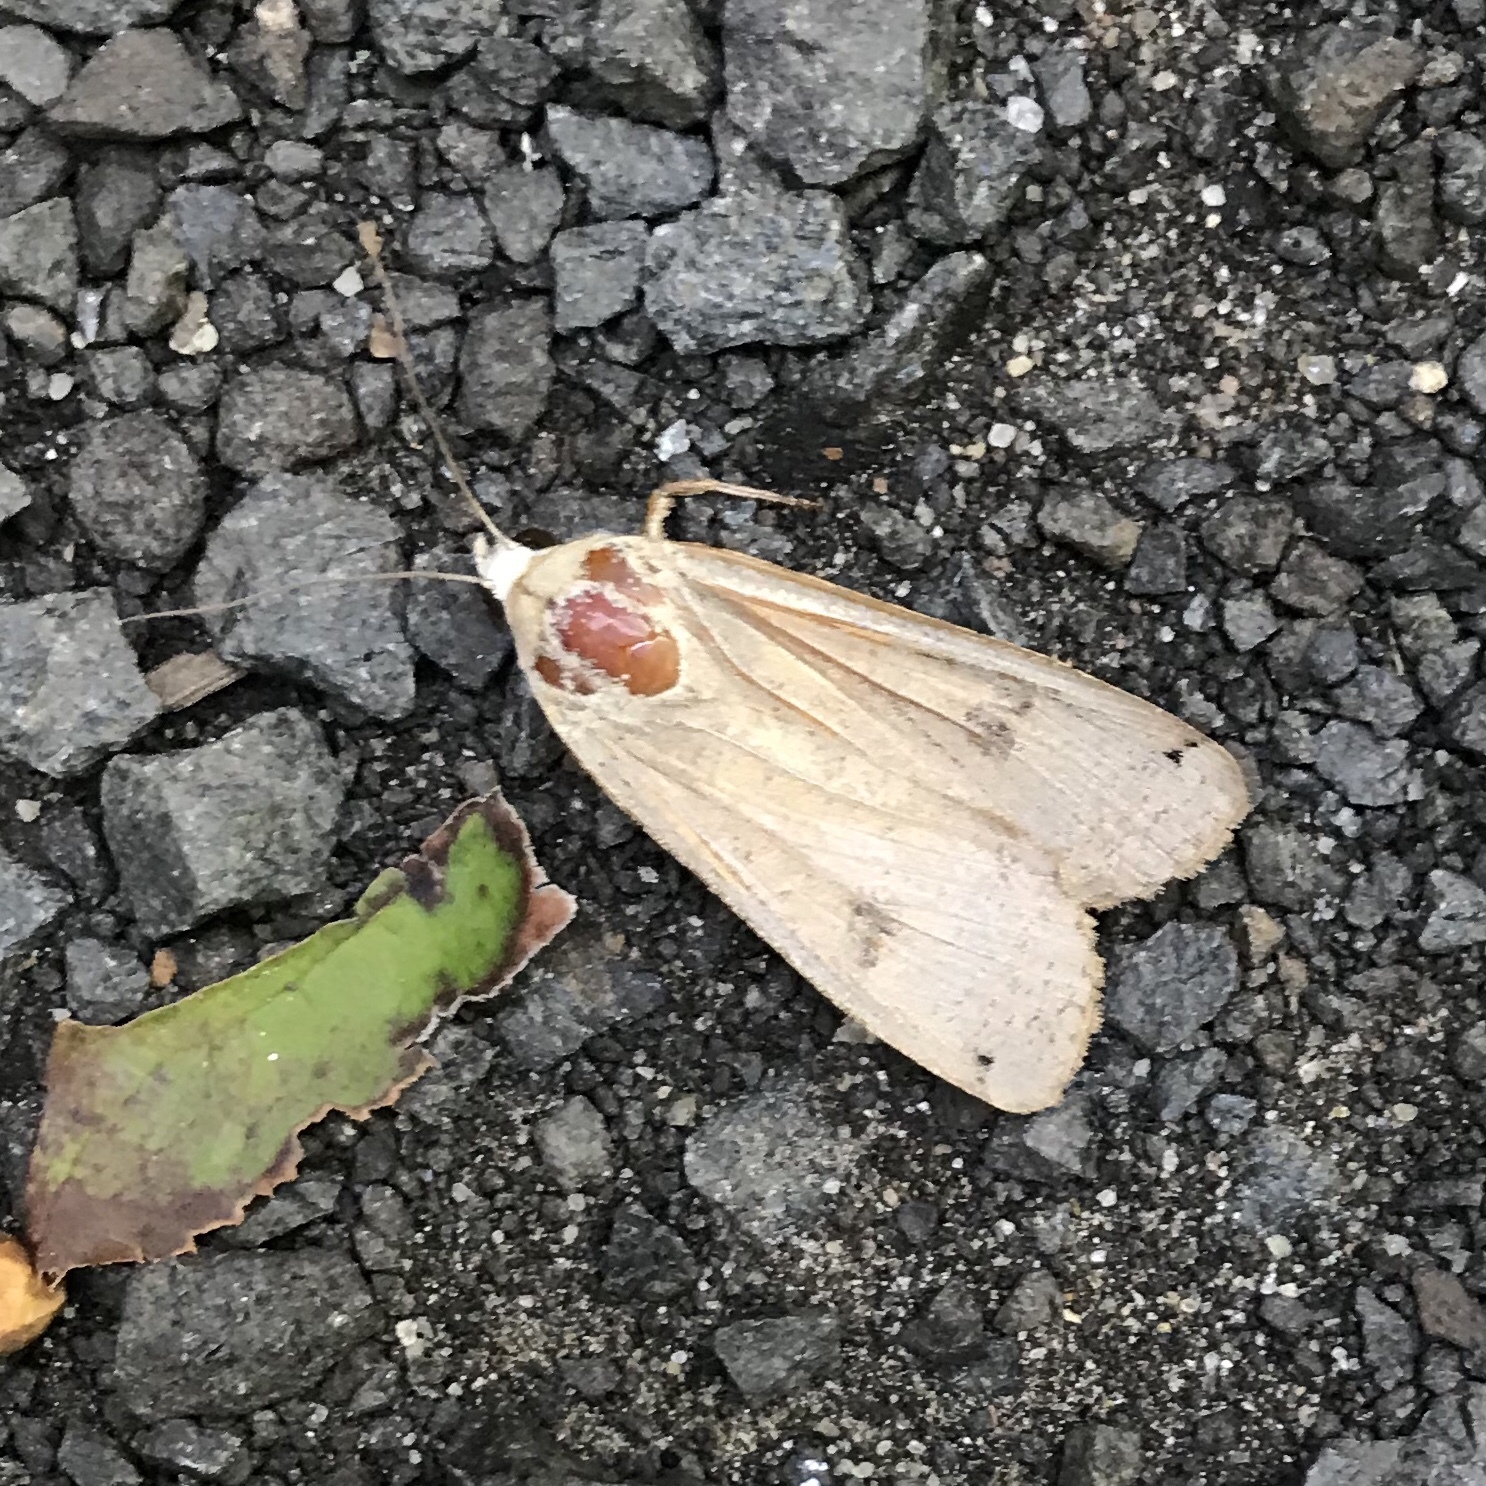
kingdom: Animalia
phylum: Arthropoda
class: Insecta
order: Lepidoptera
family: Noctuidae
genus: Noctua
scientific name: Noctua pronuba
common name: Large yellow underwing
